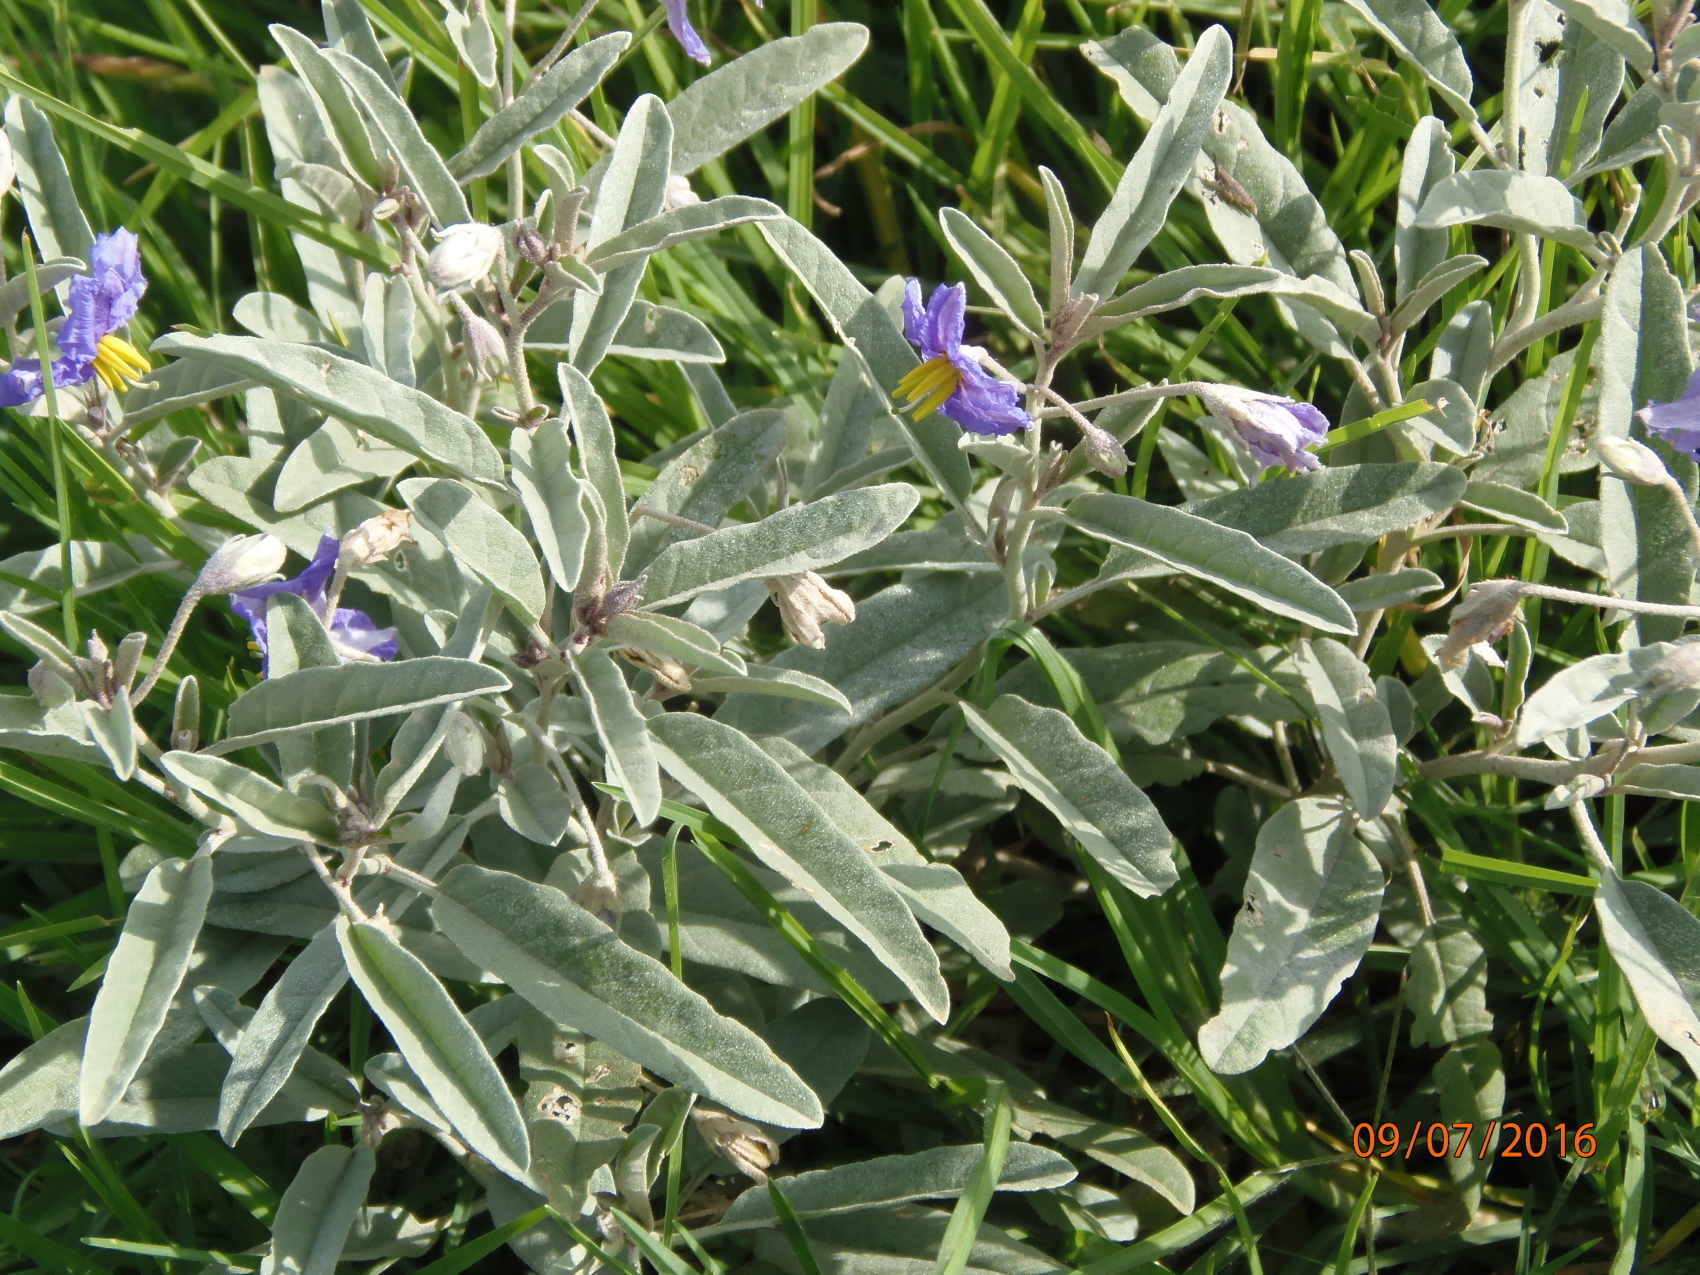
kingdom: Plantae
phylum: Tracheophyta
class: Magnoliopsida
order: Solanales
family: Solanaceae
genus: Solanum
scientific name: Solanum elaeagnifolium
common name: Silverleaf nightshade
